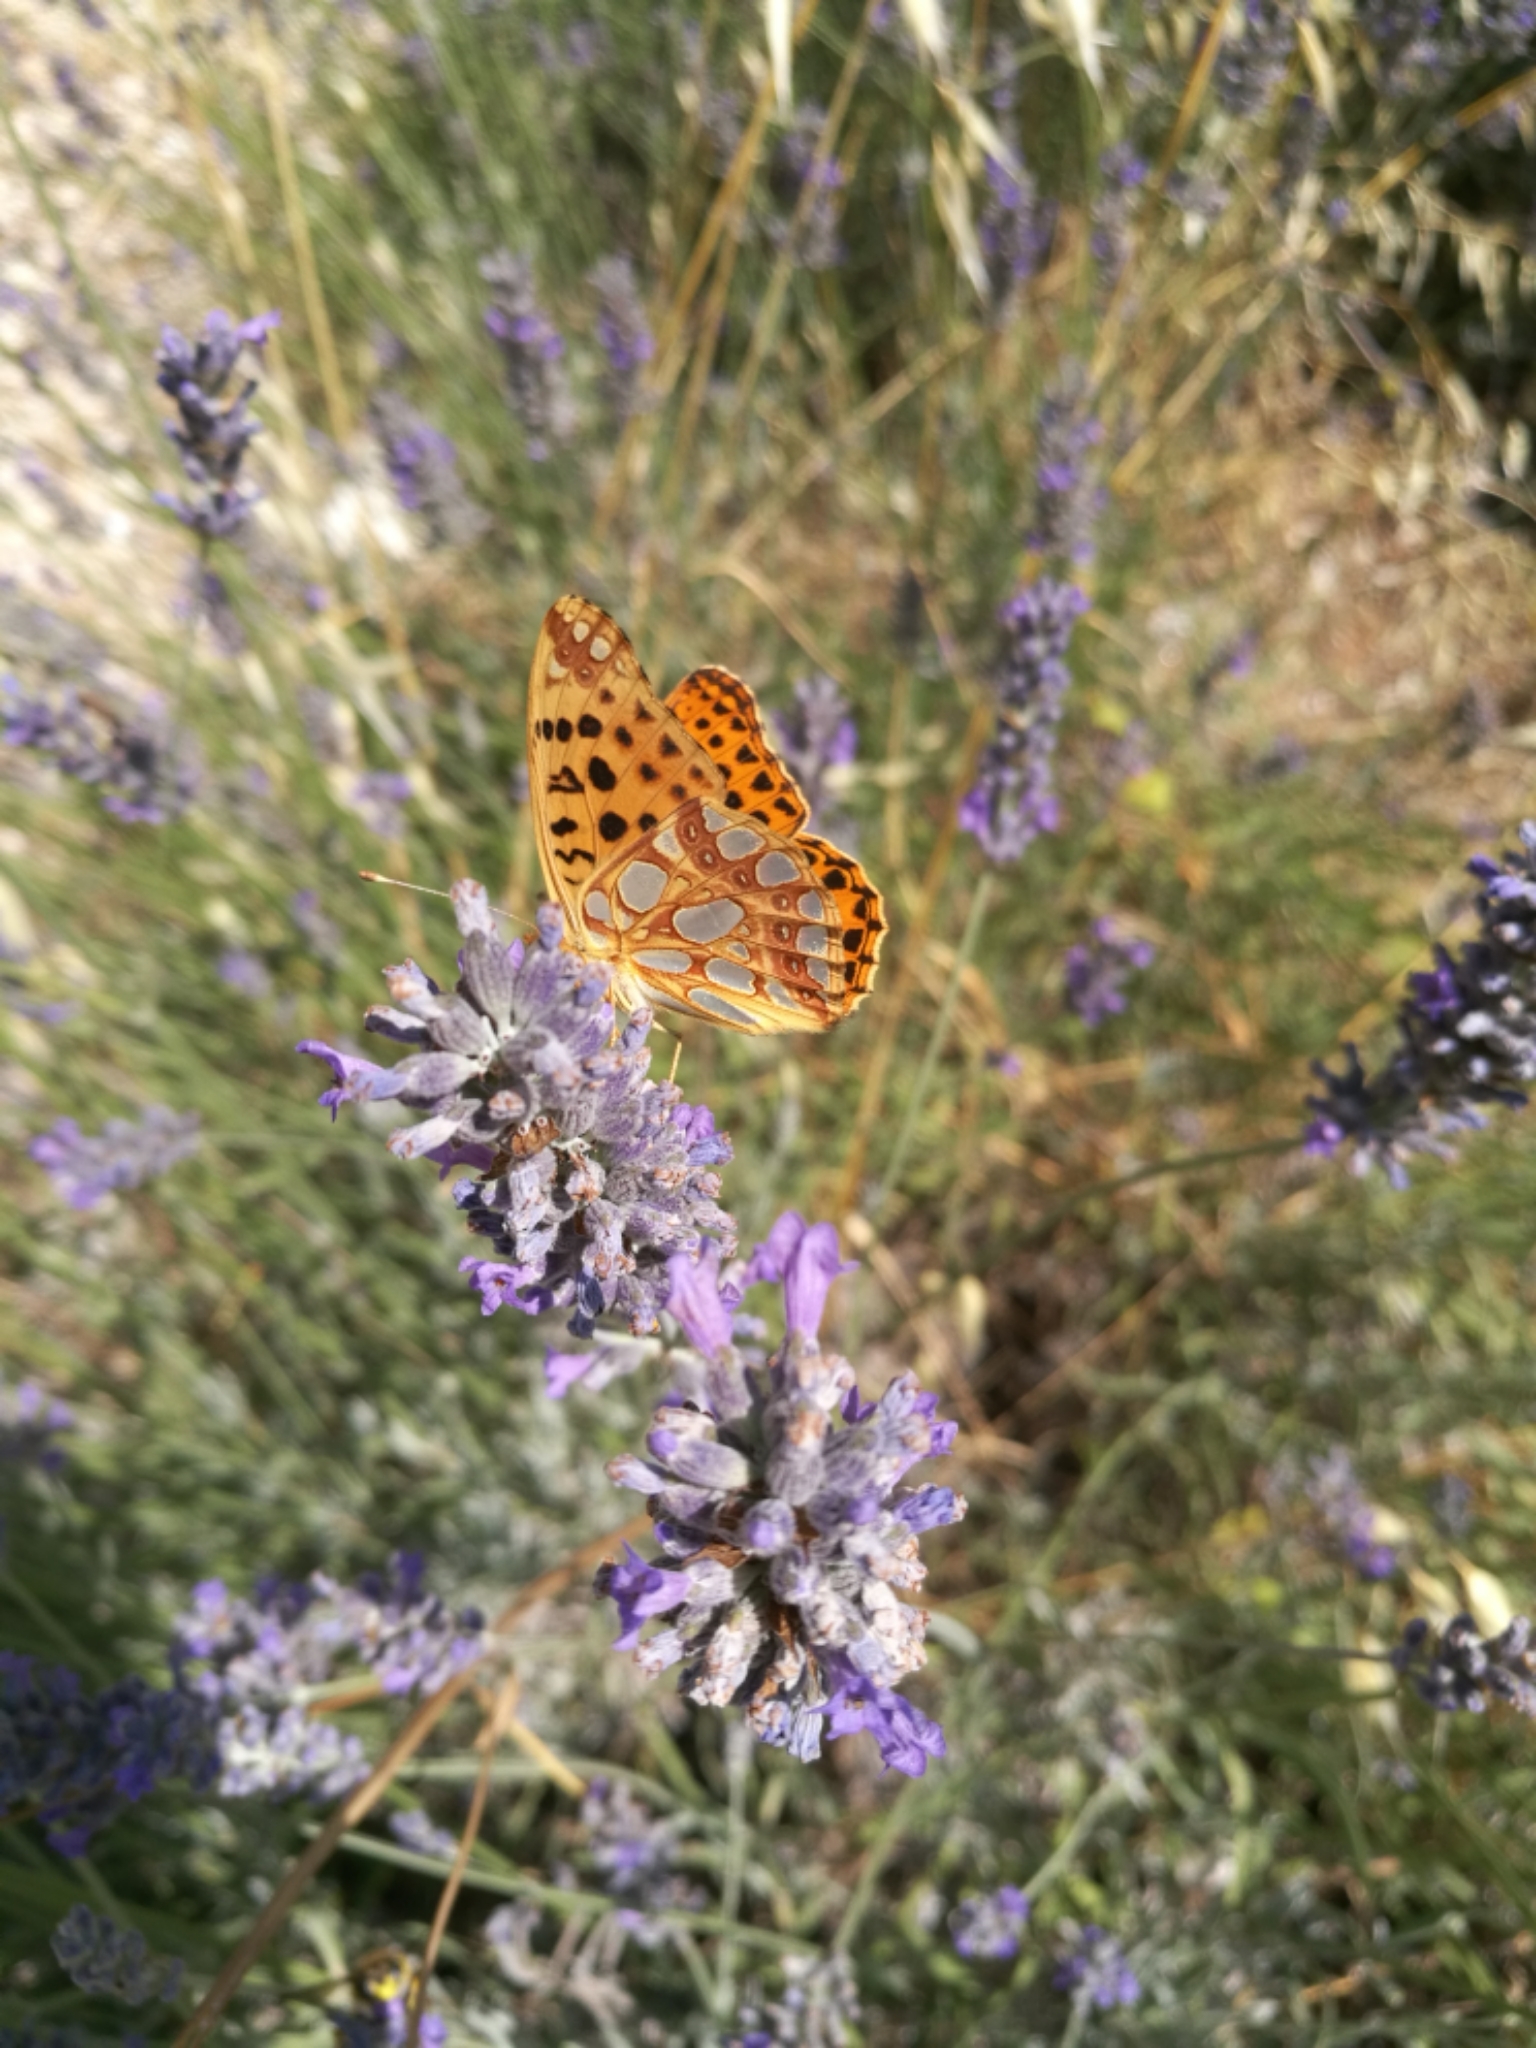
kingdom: Animalia
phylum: Arthropoda
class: Insecta
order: Lepidoptera
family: Nymphalidae
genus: Issoria
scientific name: Issoria lathonia
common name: Queen of spain fritillary
